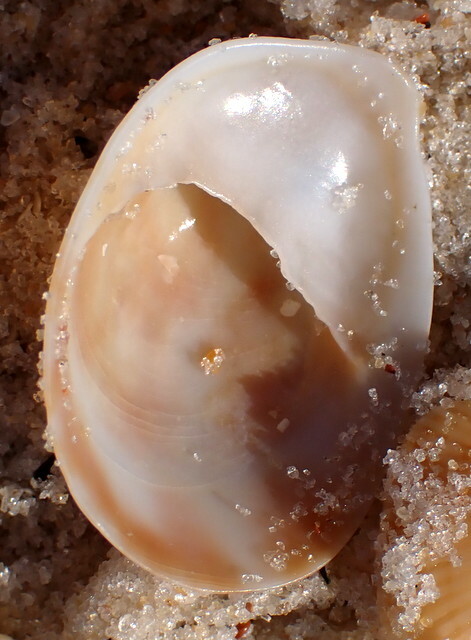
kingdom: Animalia
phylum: Mollusca
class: Gastropoda
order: Littorinimorpha
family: Calyptraeidae
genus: Crepidula
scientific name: Crepidula fornicata
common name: Slipper limpet
